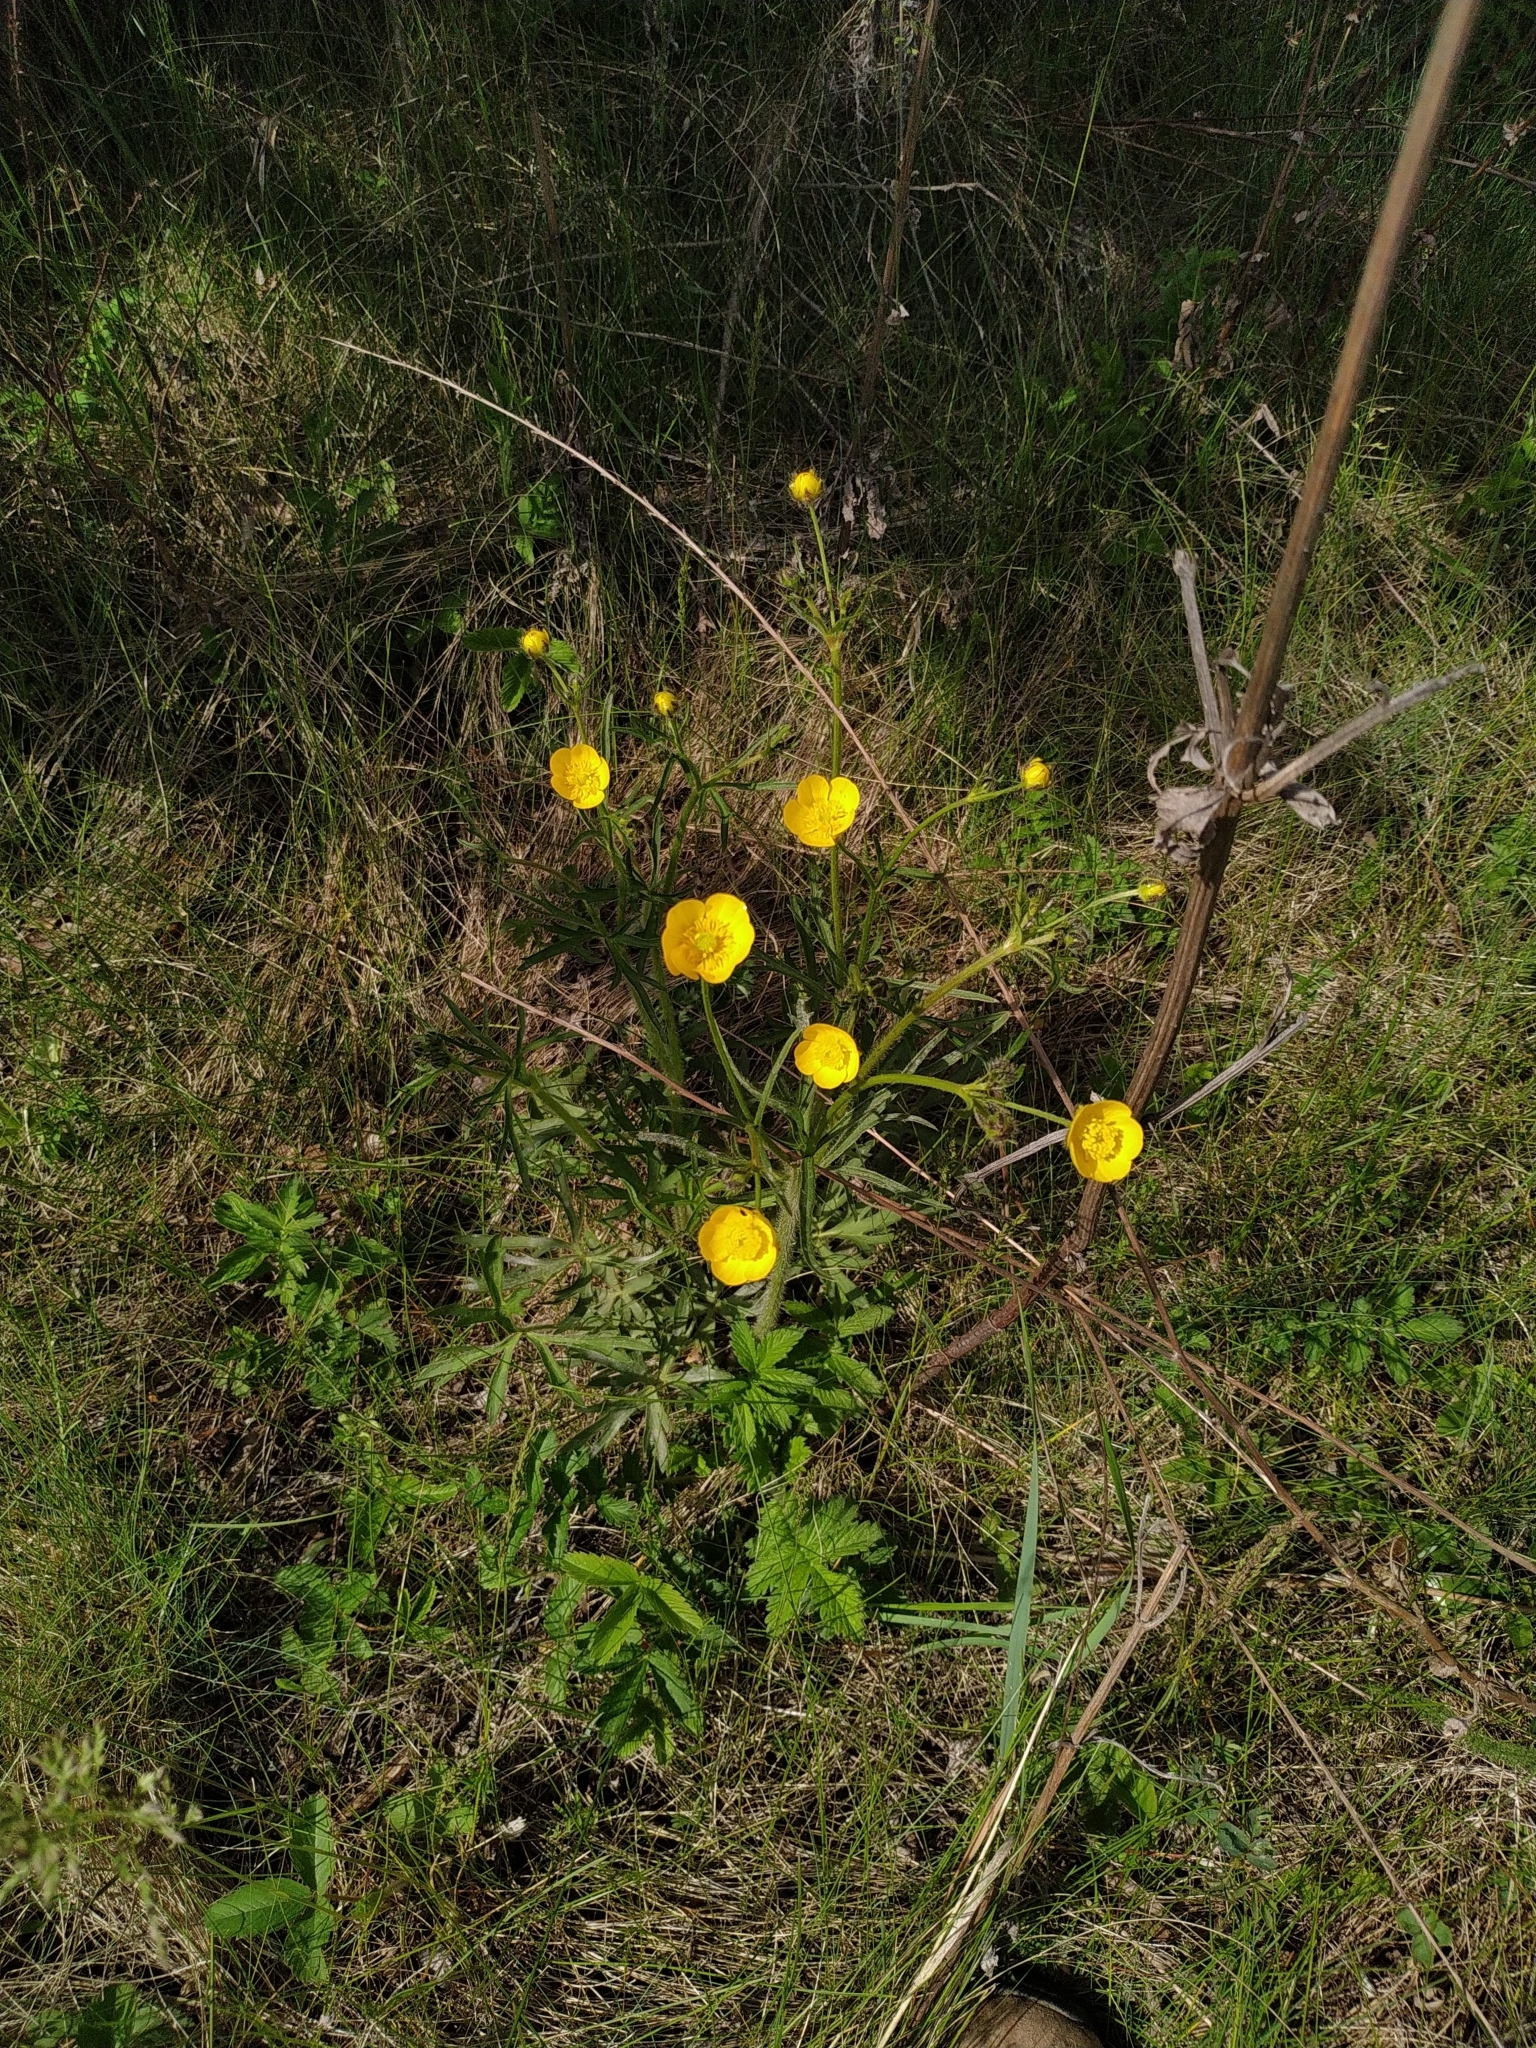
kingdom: Plantae
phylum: Tracheophyta
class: Magnoliopsida
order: Ranunculales
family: Ranunculaceae
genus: Ranunculus
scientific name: Ranunculus polyanthemos
